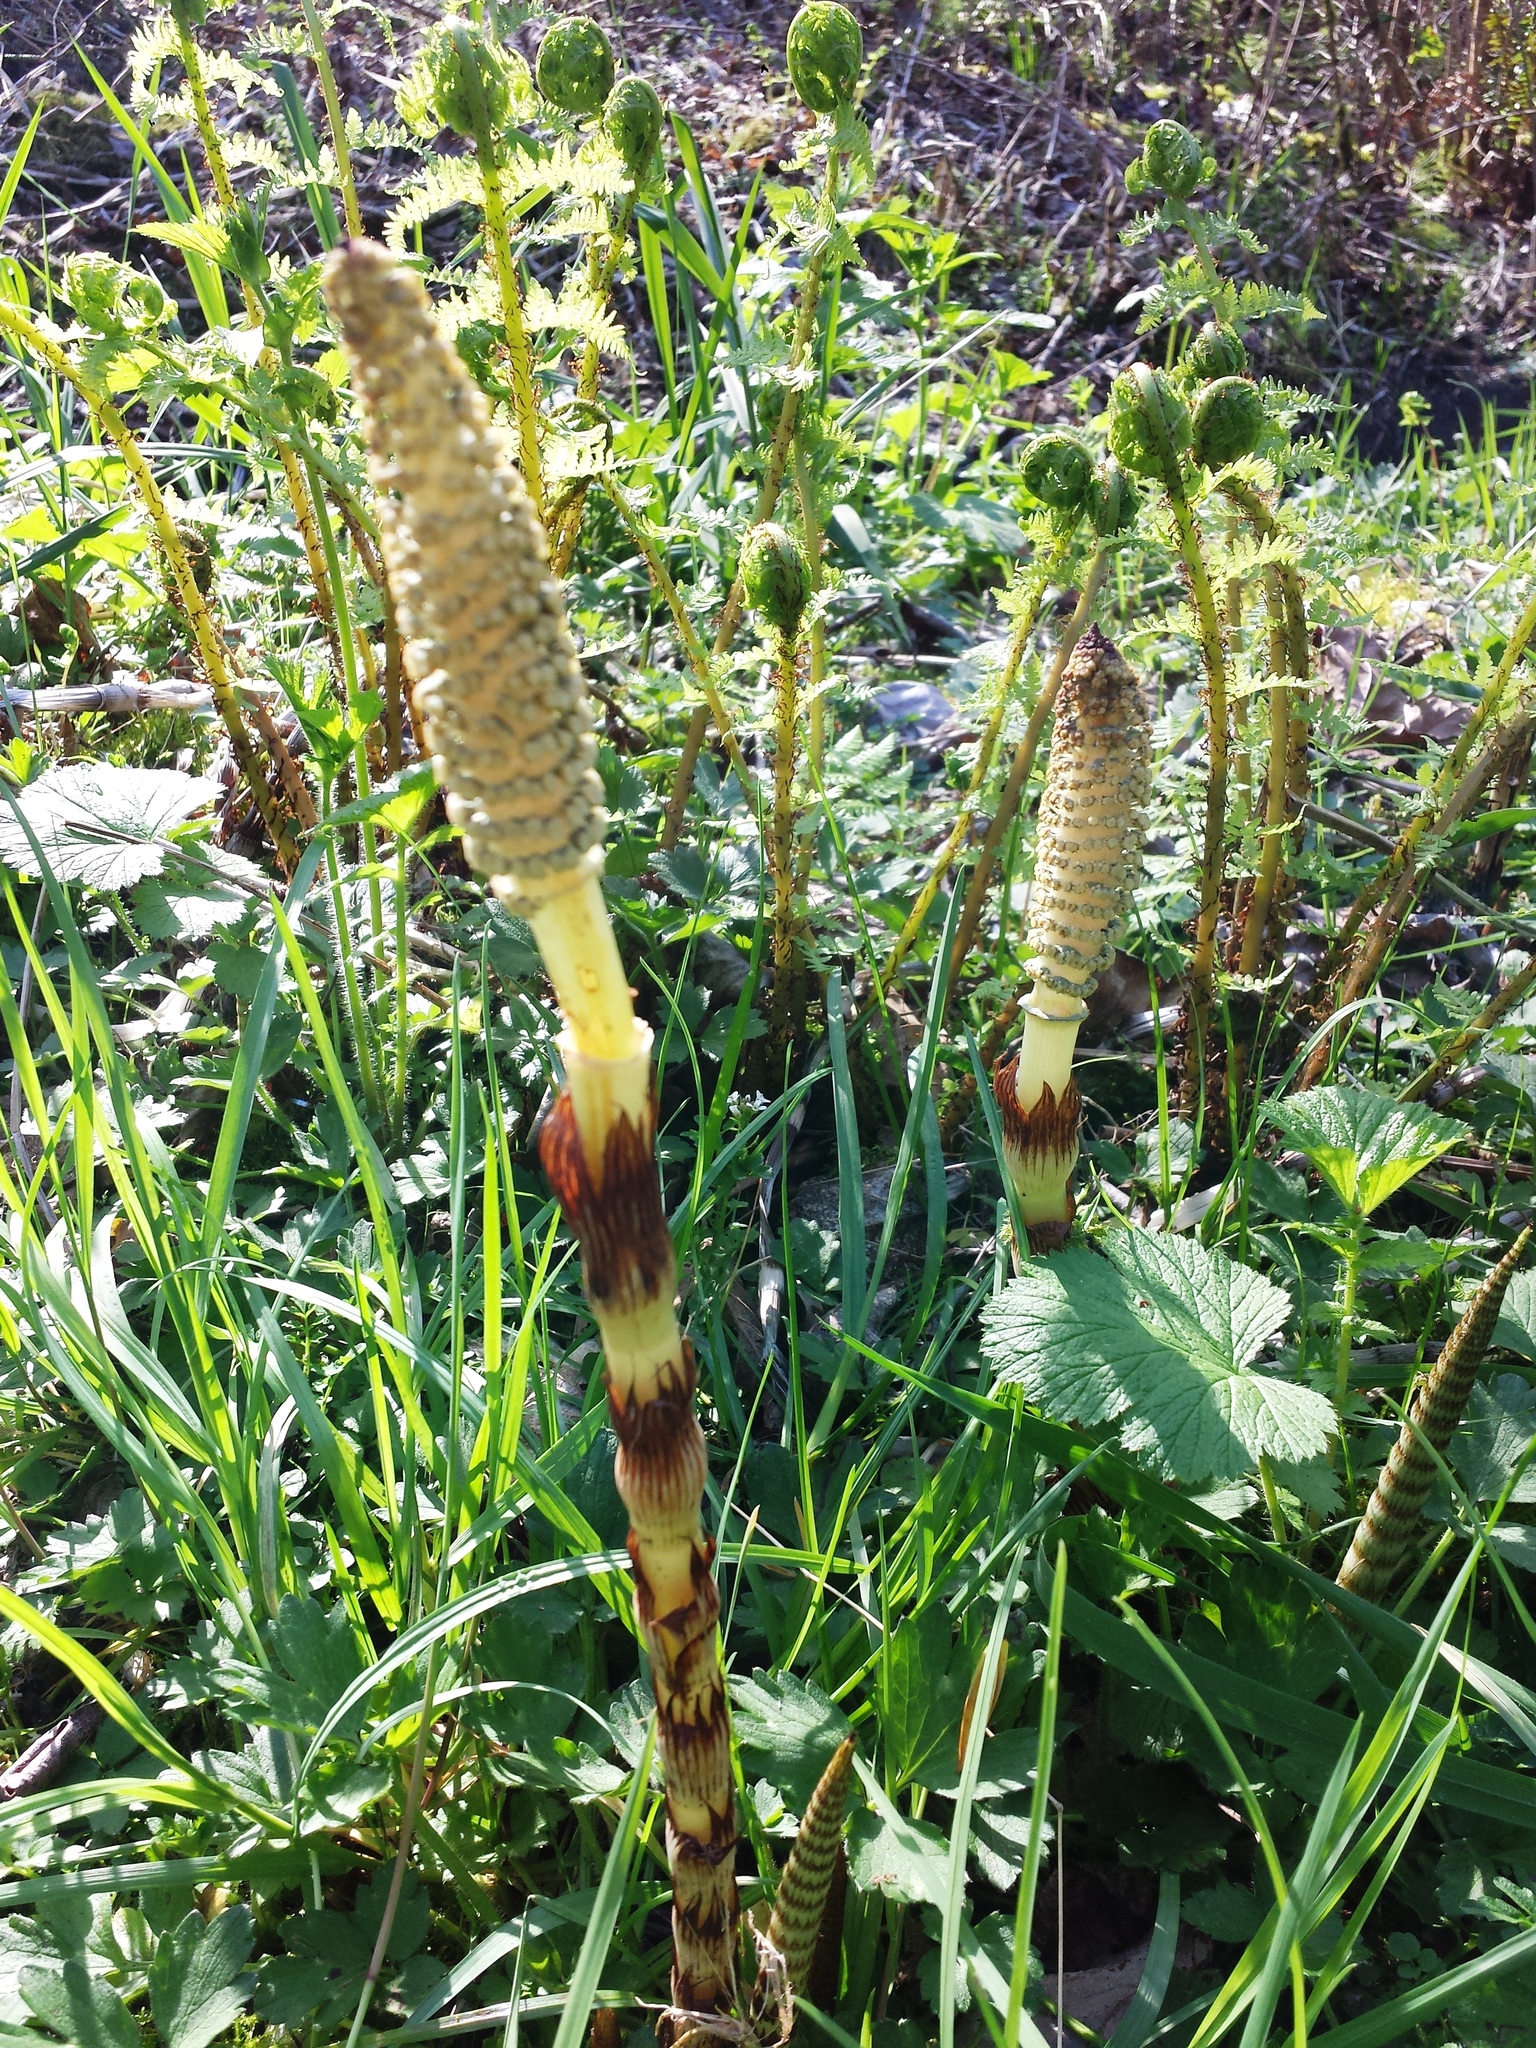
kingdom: Plantae
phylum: Tracheophyta
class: Polypodiopsida
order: Equisetales
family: Equisetaceae
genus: Equisetum
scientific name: Equisetum telmateia
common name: Great horsetail
